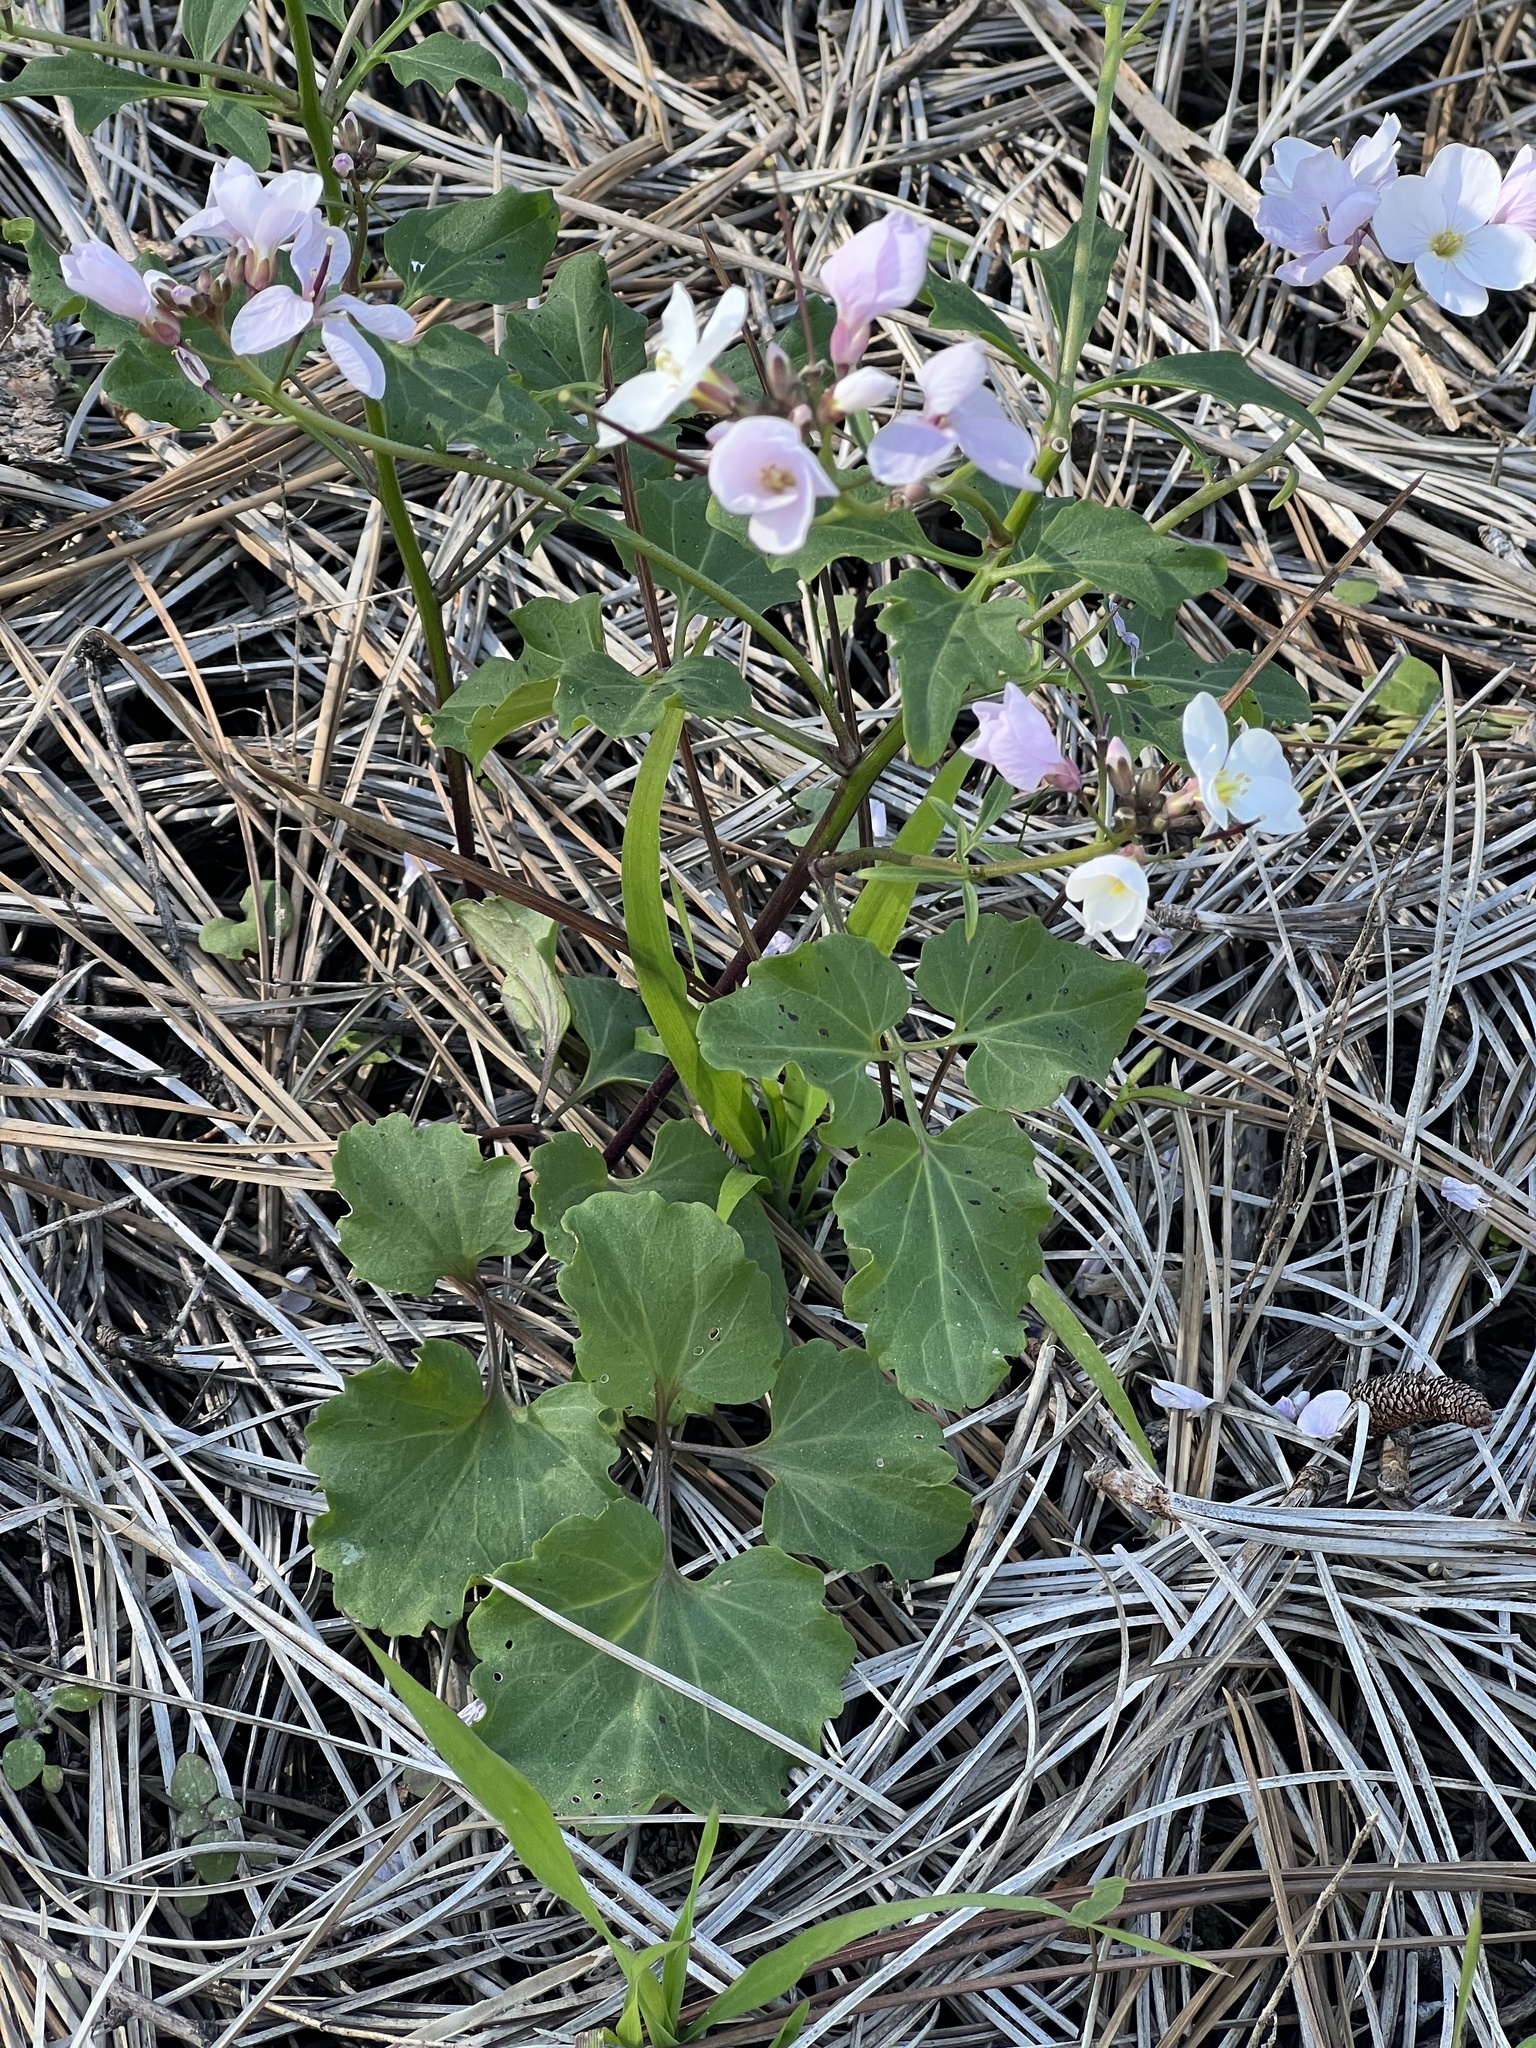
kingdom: Plantae
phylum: Tracheophyta
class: Magnoliopsida
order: Brassicales
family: Brassicaceae
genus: Cardamine
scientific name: Cardamine californica
